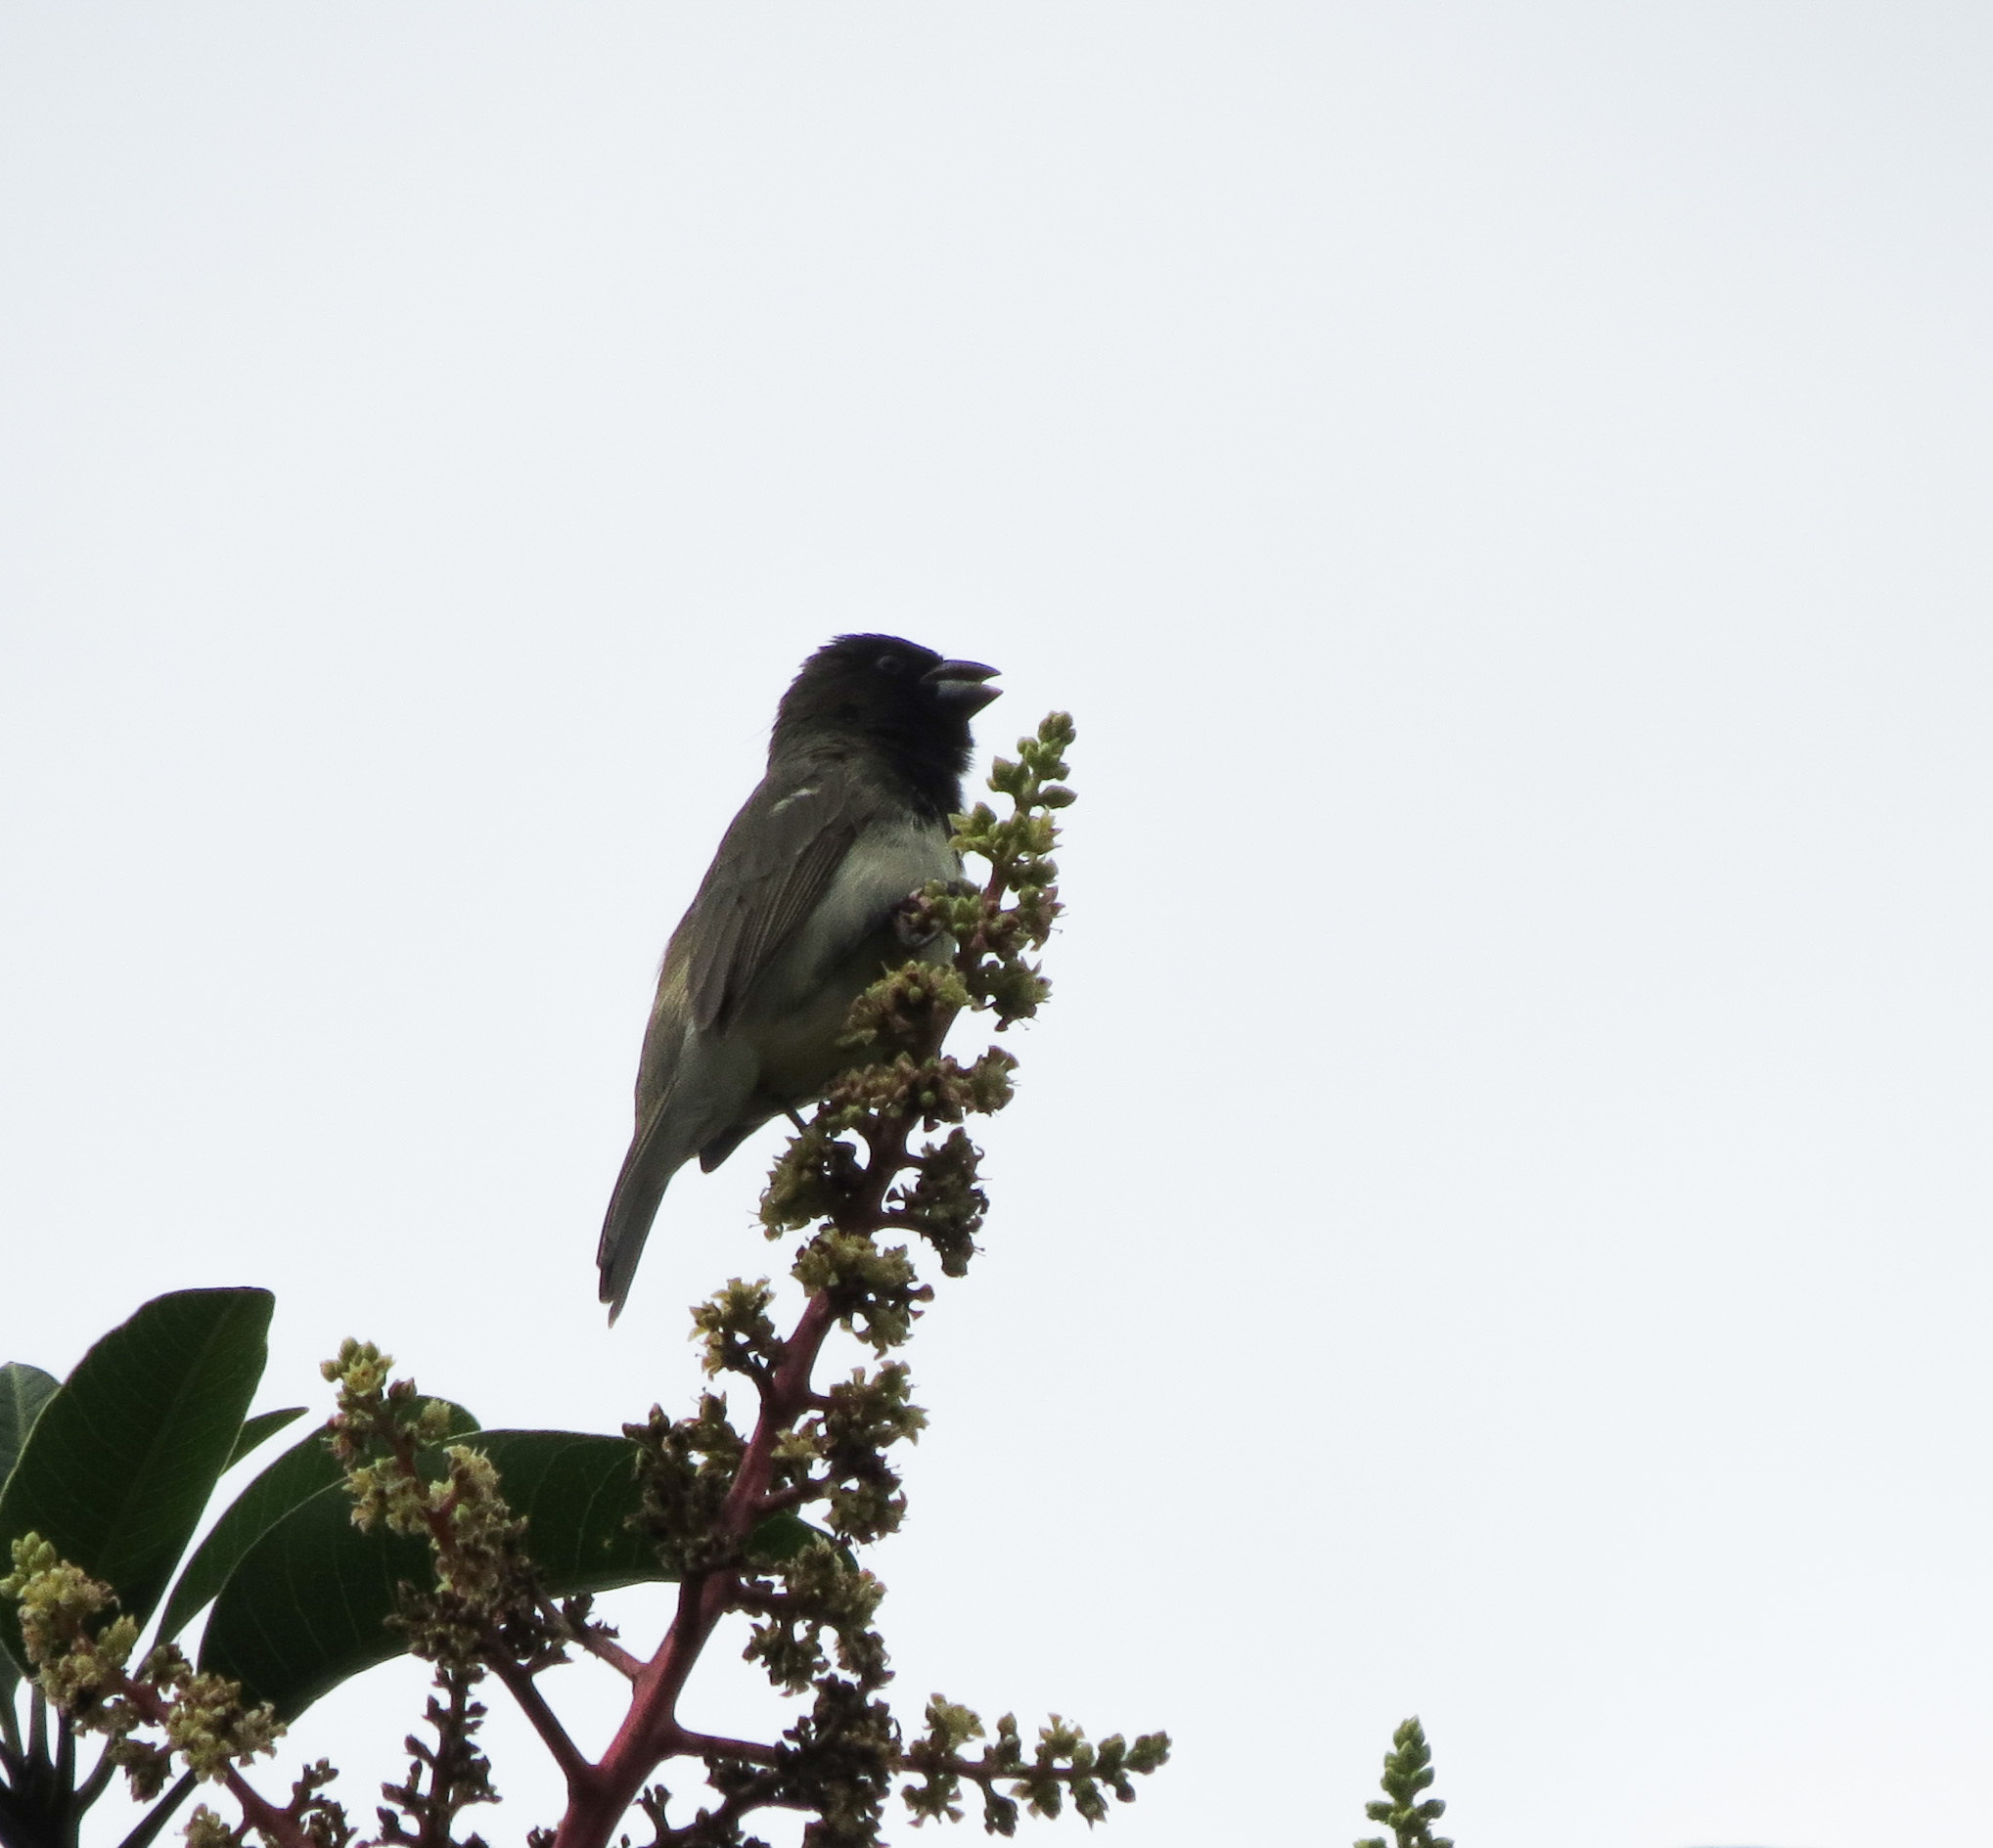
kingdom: Animalia
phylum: Chordata
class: Aves
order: Passeriformes
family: Thraupidae
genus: Sporophila
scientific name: Sporophila nigricollis
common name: Yellow-bellied seedeater
